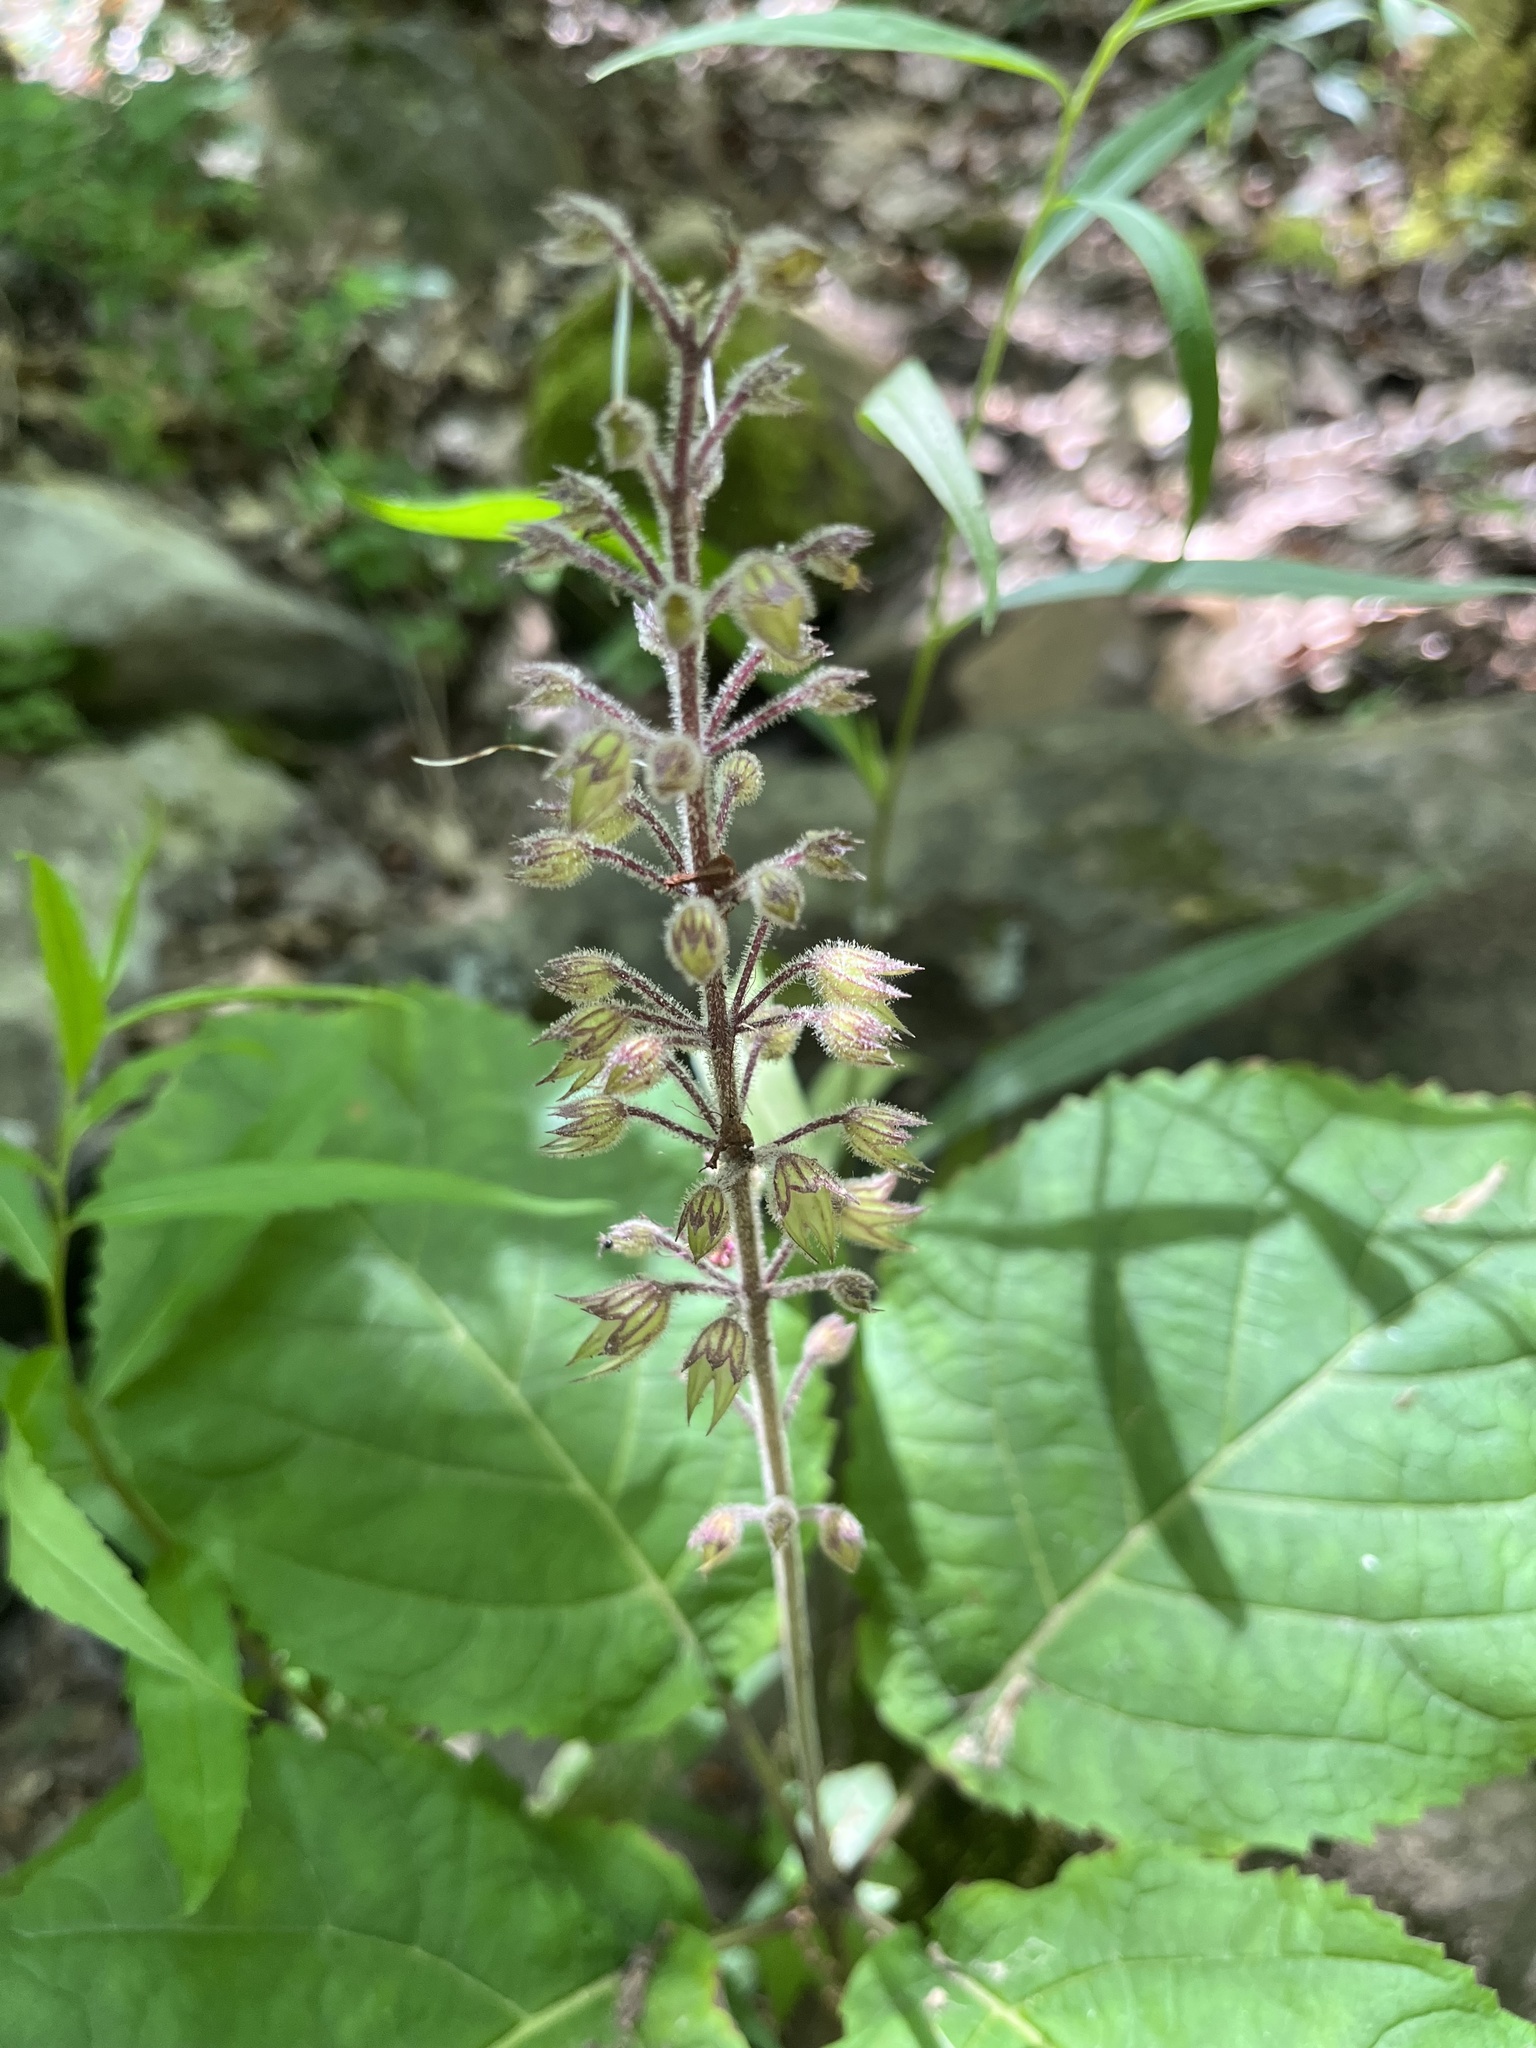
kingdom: Plantae
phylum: Tracheophyta
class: Magnoliopsida
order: Lamiales
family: Lamiaceae
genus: Collinsonia
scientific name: Collinsonia verticillata
